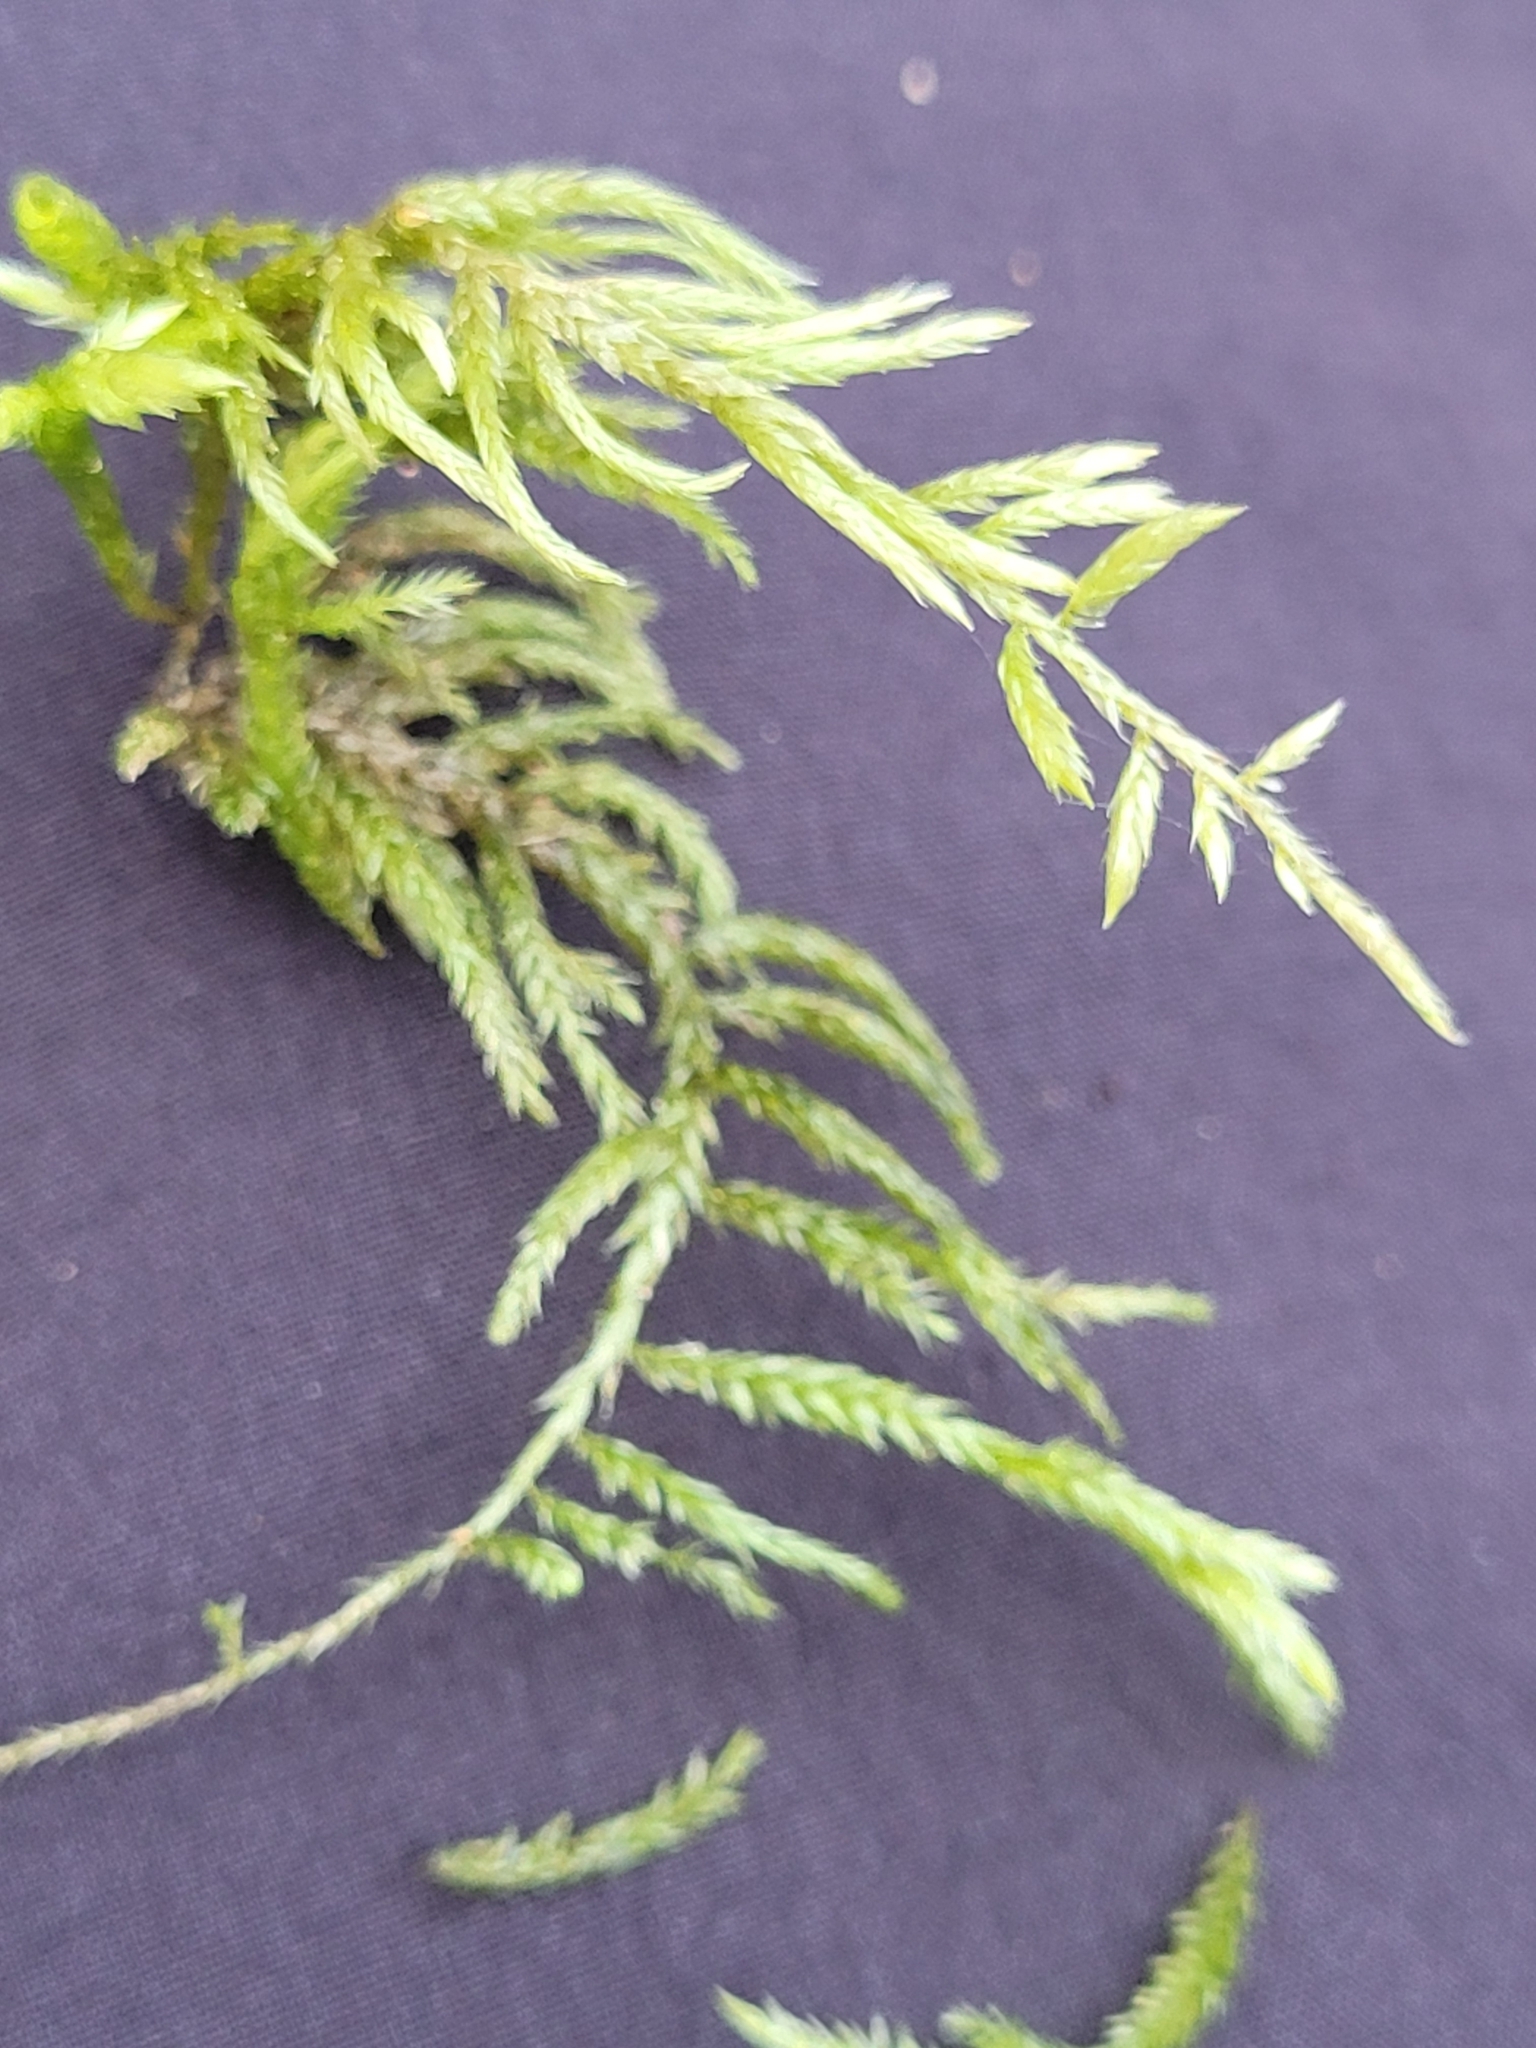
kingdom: Plantae
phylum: Bryophyta
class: Bryopsida
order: Hypnales
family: Lembophyllaceae
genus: Isothecium
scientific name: Isothecium alopecuroides
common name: Larger mouse-tail moss
